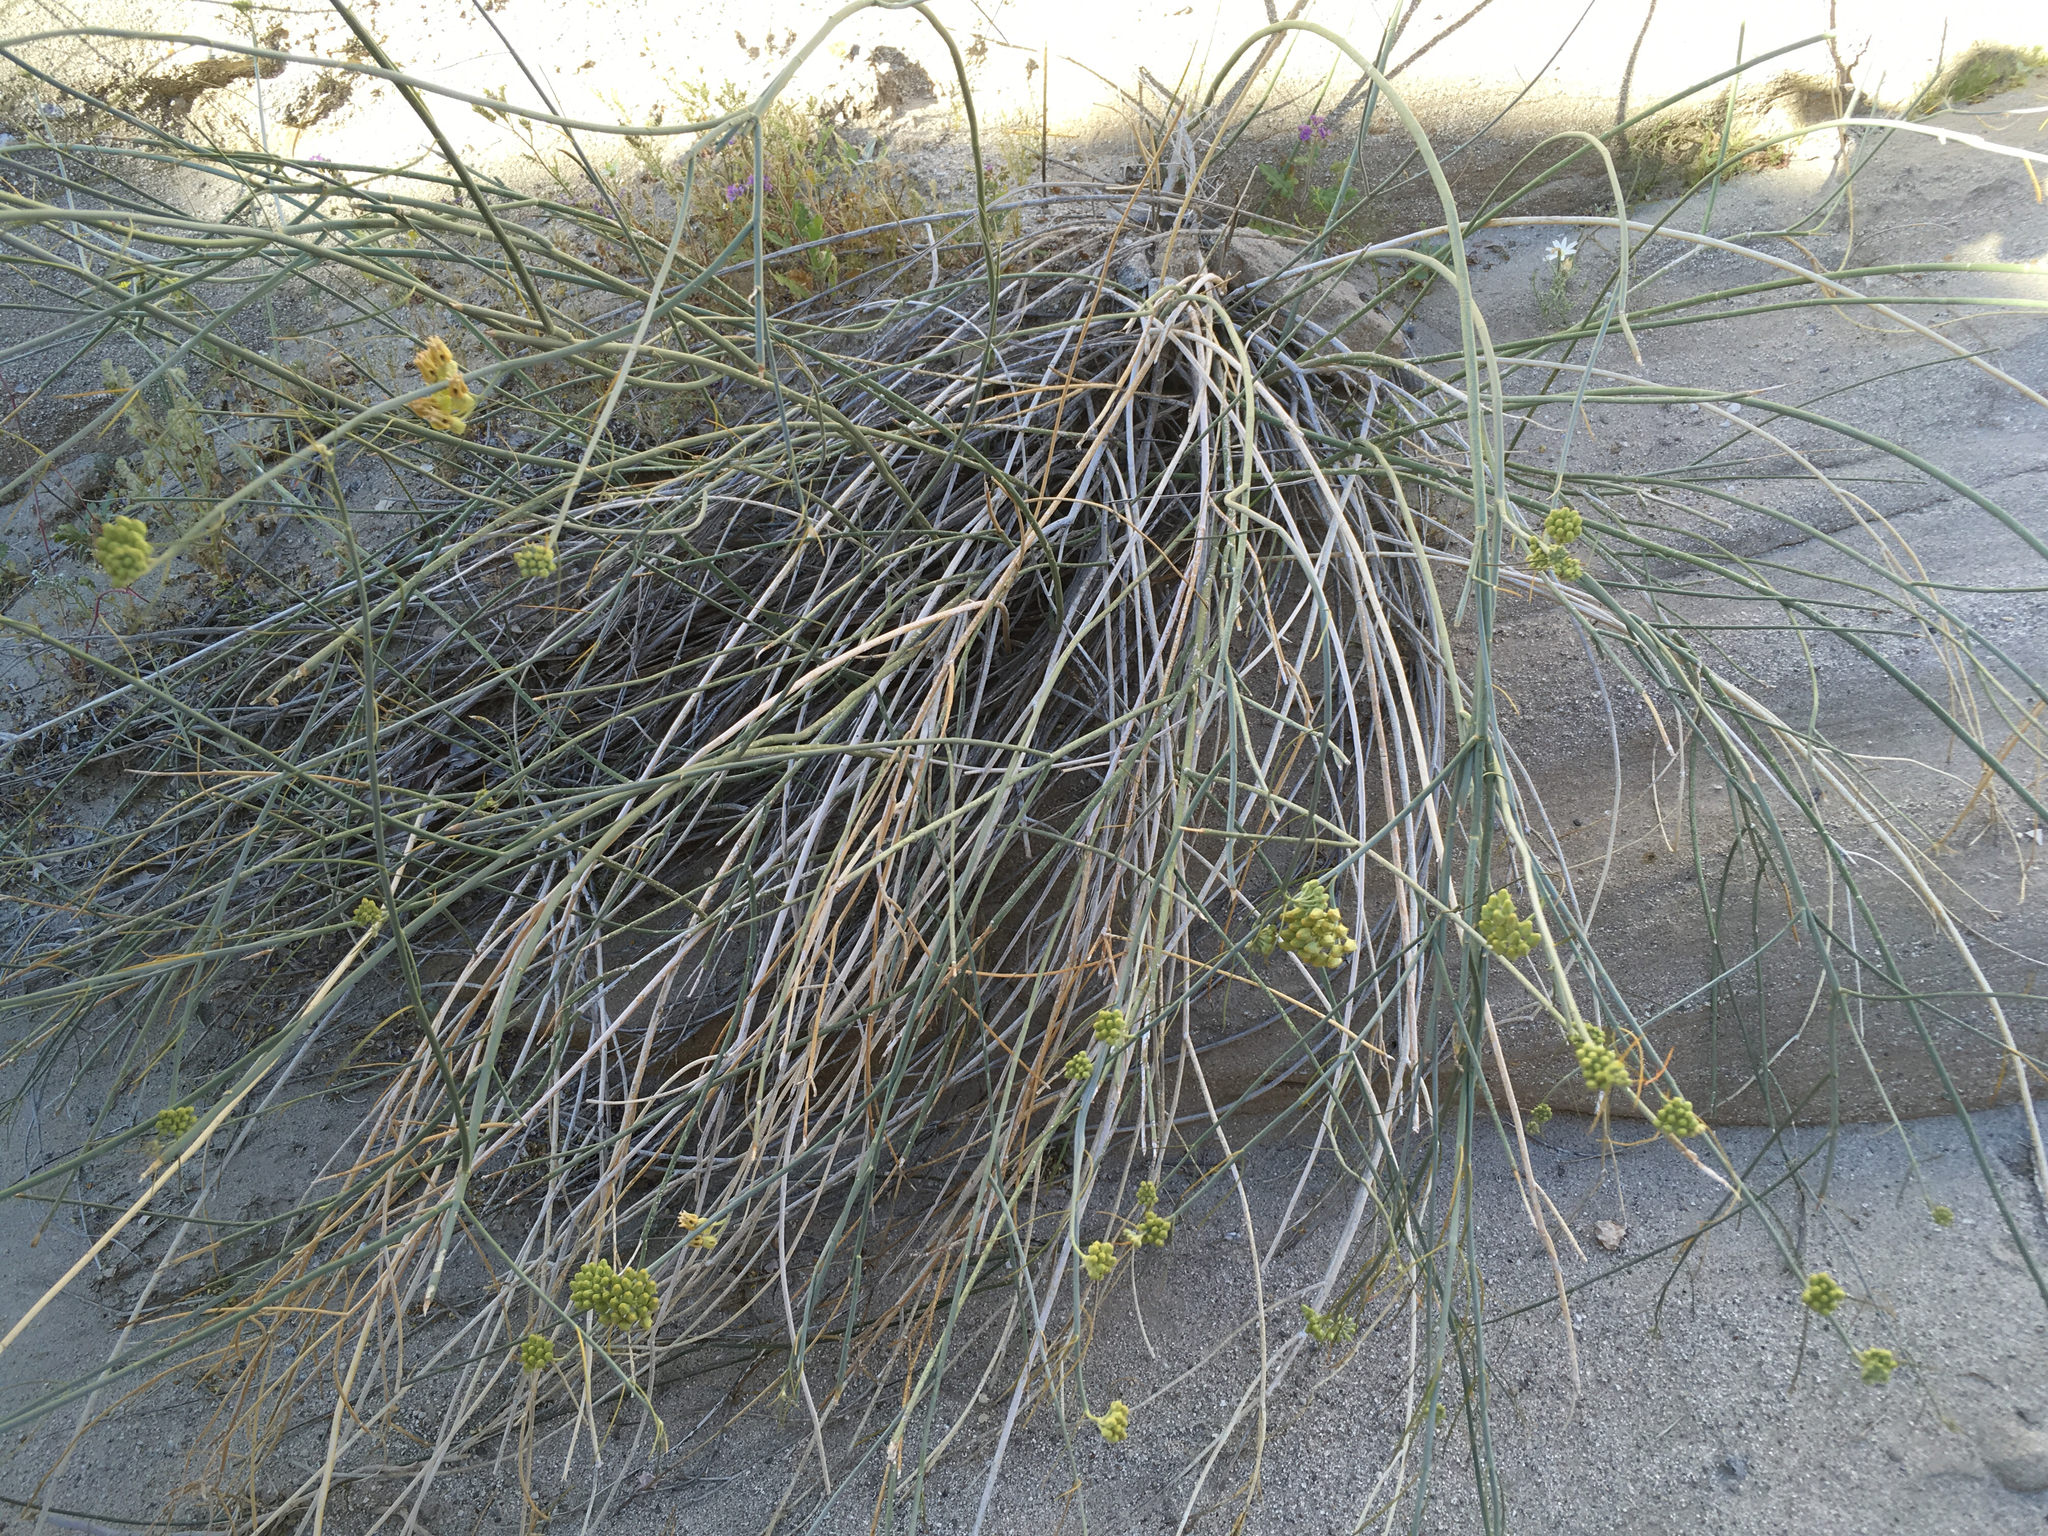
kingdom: Plantae
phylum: Tracheophyta
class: Magnoliopsida
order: Gentianales
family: Apocynaceae
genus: Asclepias
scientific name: Asclepias subulata
